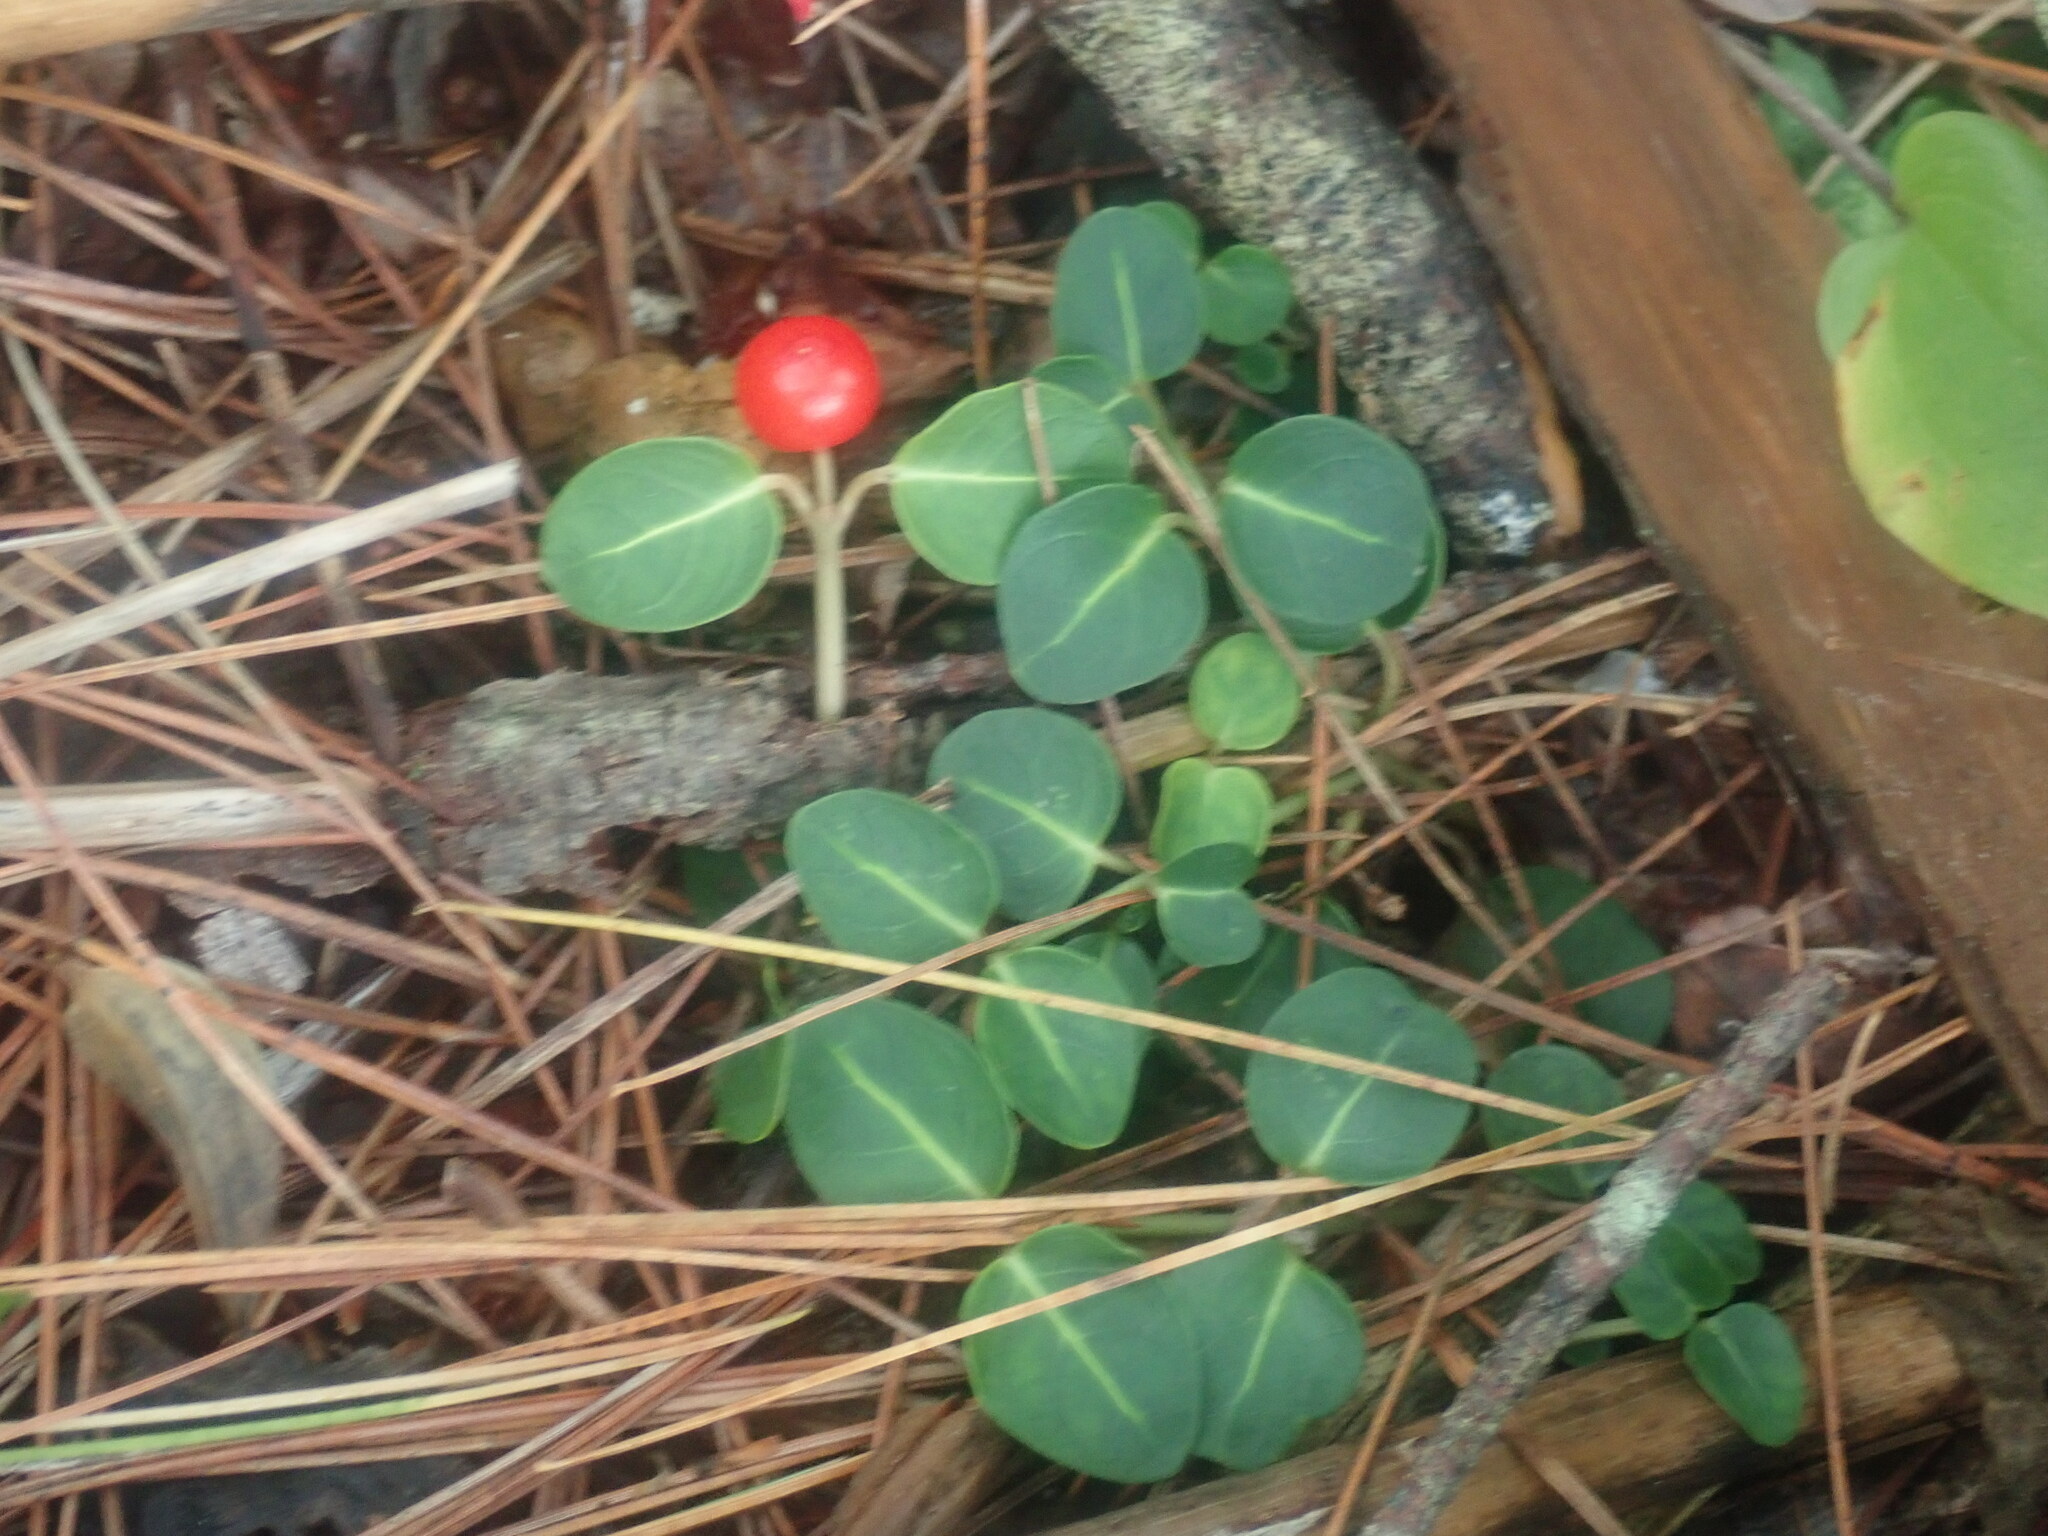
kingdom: Plantae
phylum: Tracheophyta
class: Magnoliopsida
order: Gentianales
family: Rubiaceae
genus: Mitchella
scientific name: Mitchella repens
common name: Partridge-berry
